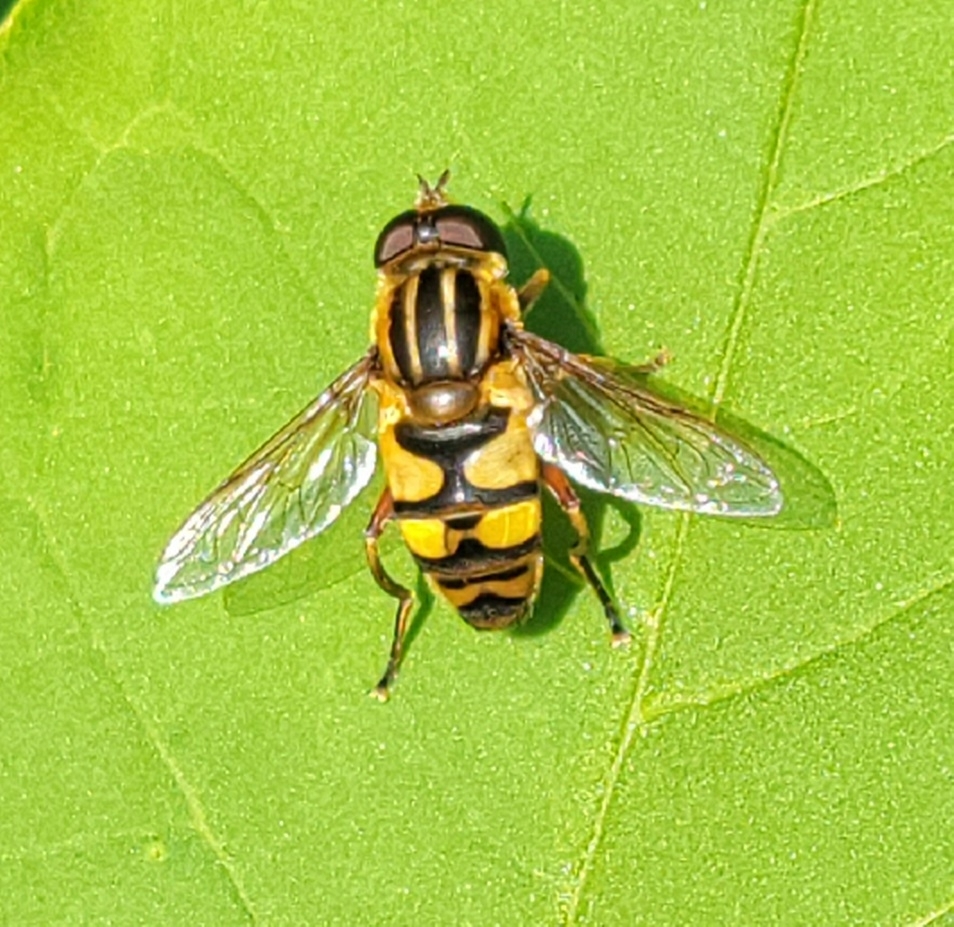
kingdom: Animalia
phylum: Arthropoda
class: Insecta
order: Diptera
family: Syrphidae
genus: Helophilus
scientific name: Helophilus fasciatus
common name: Narrow-headed marsh fly
